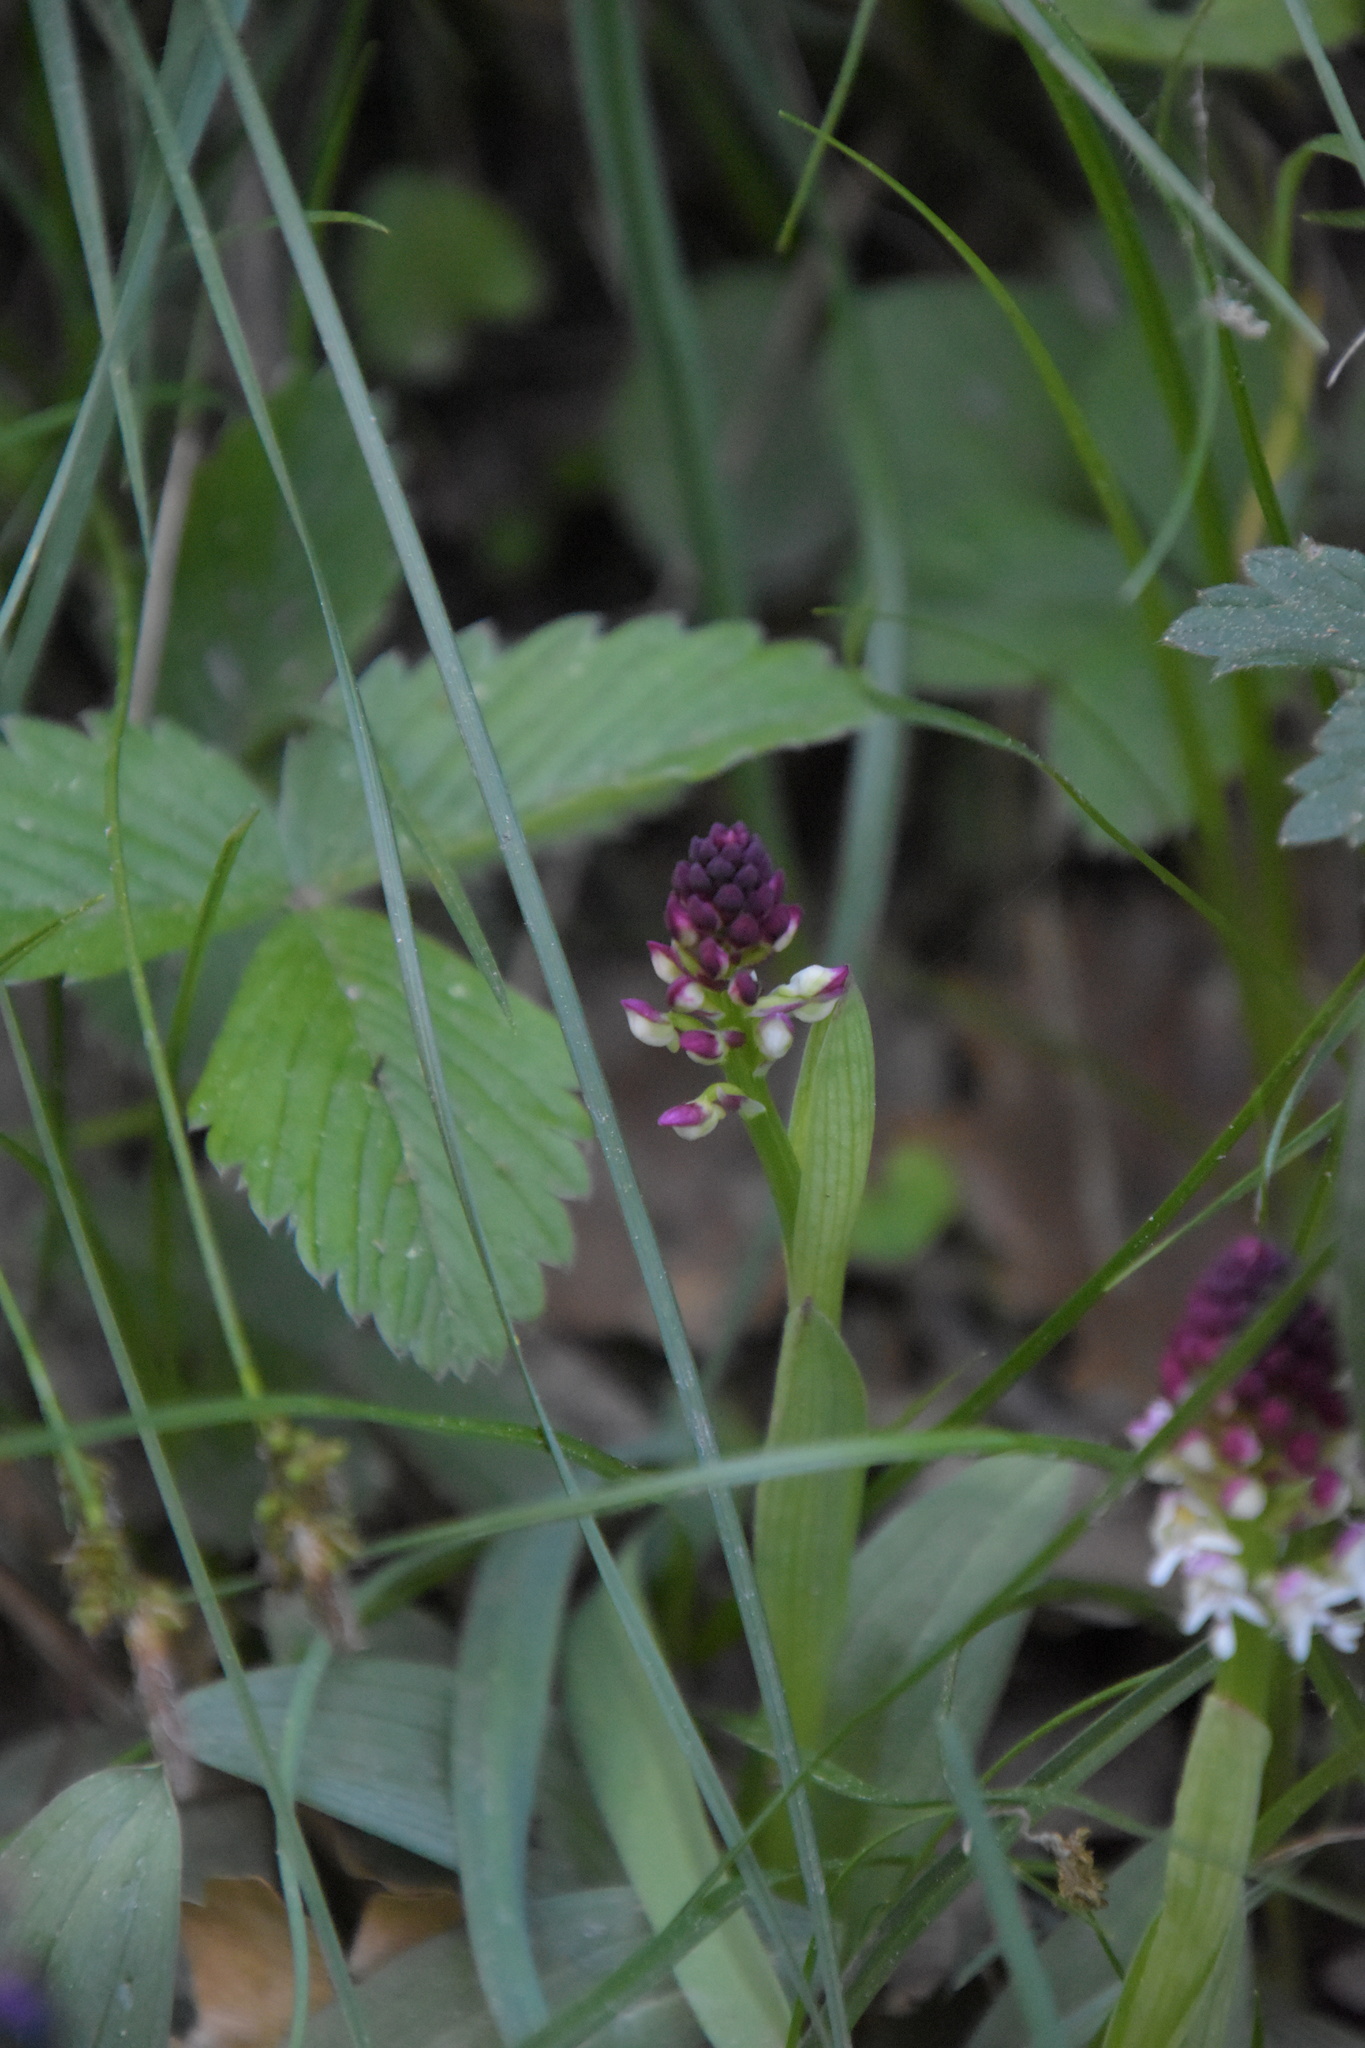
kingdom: Plantae
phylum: Tracheophyta
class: Liliopsida
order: Asparagales
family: Orchidaceae
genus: Neotinea
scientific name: Neotinea ustulata
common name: Burnt orchid
